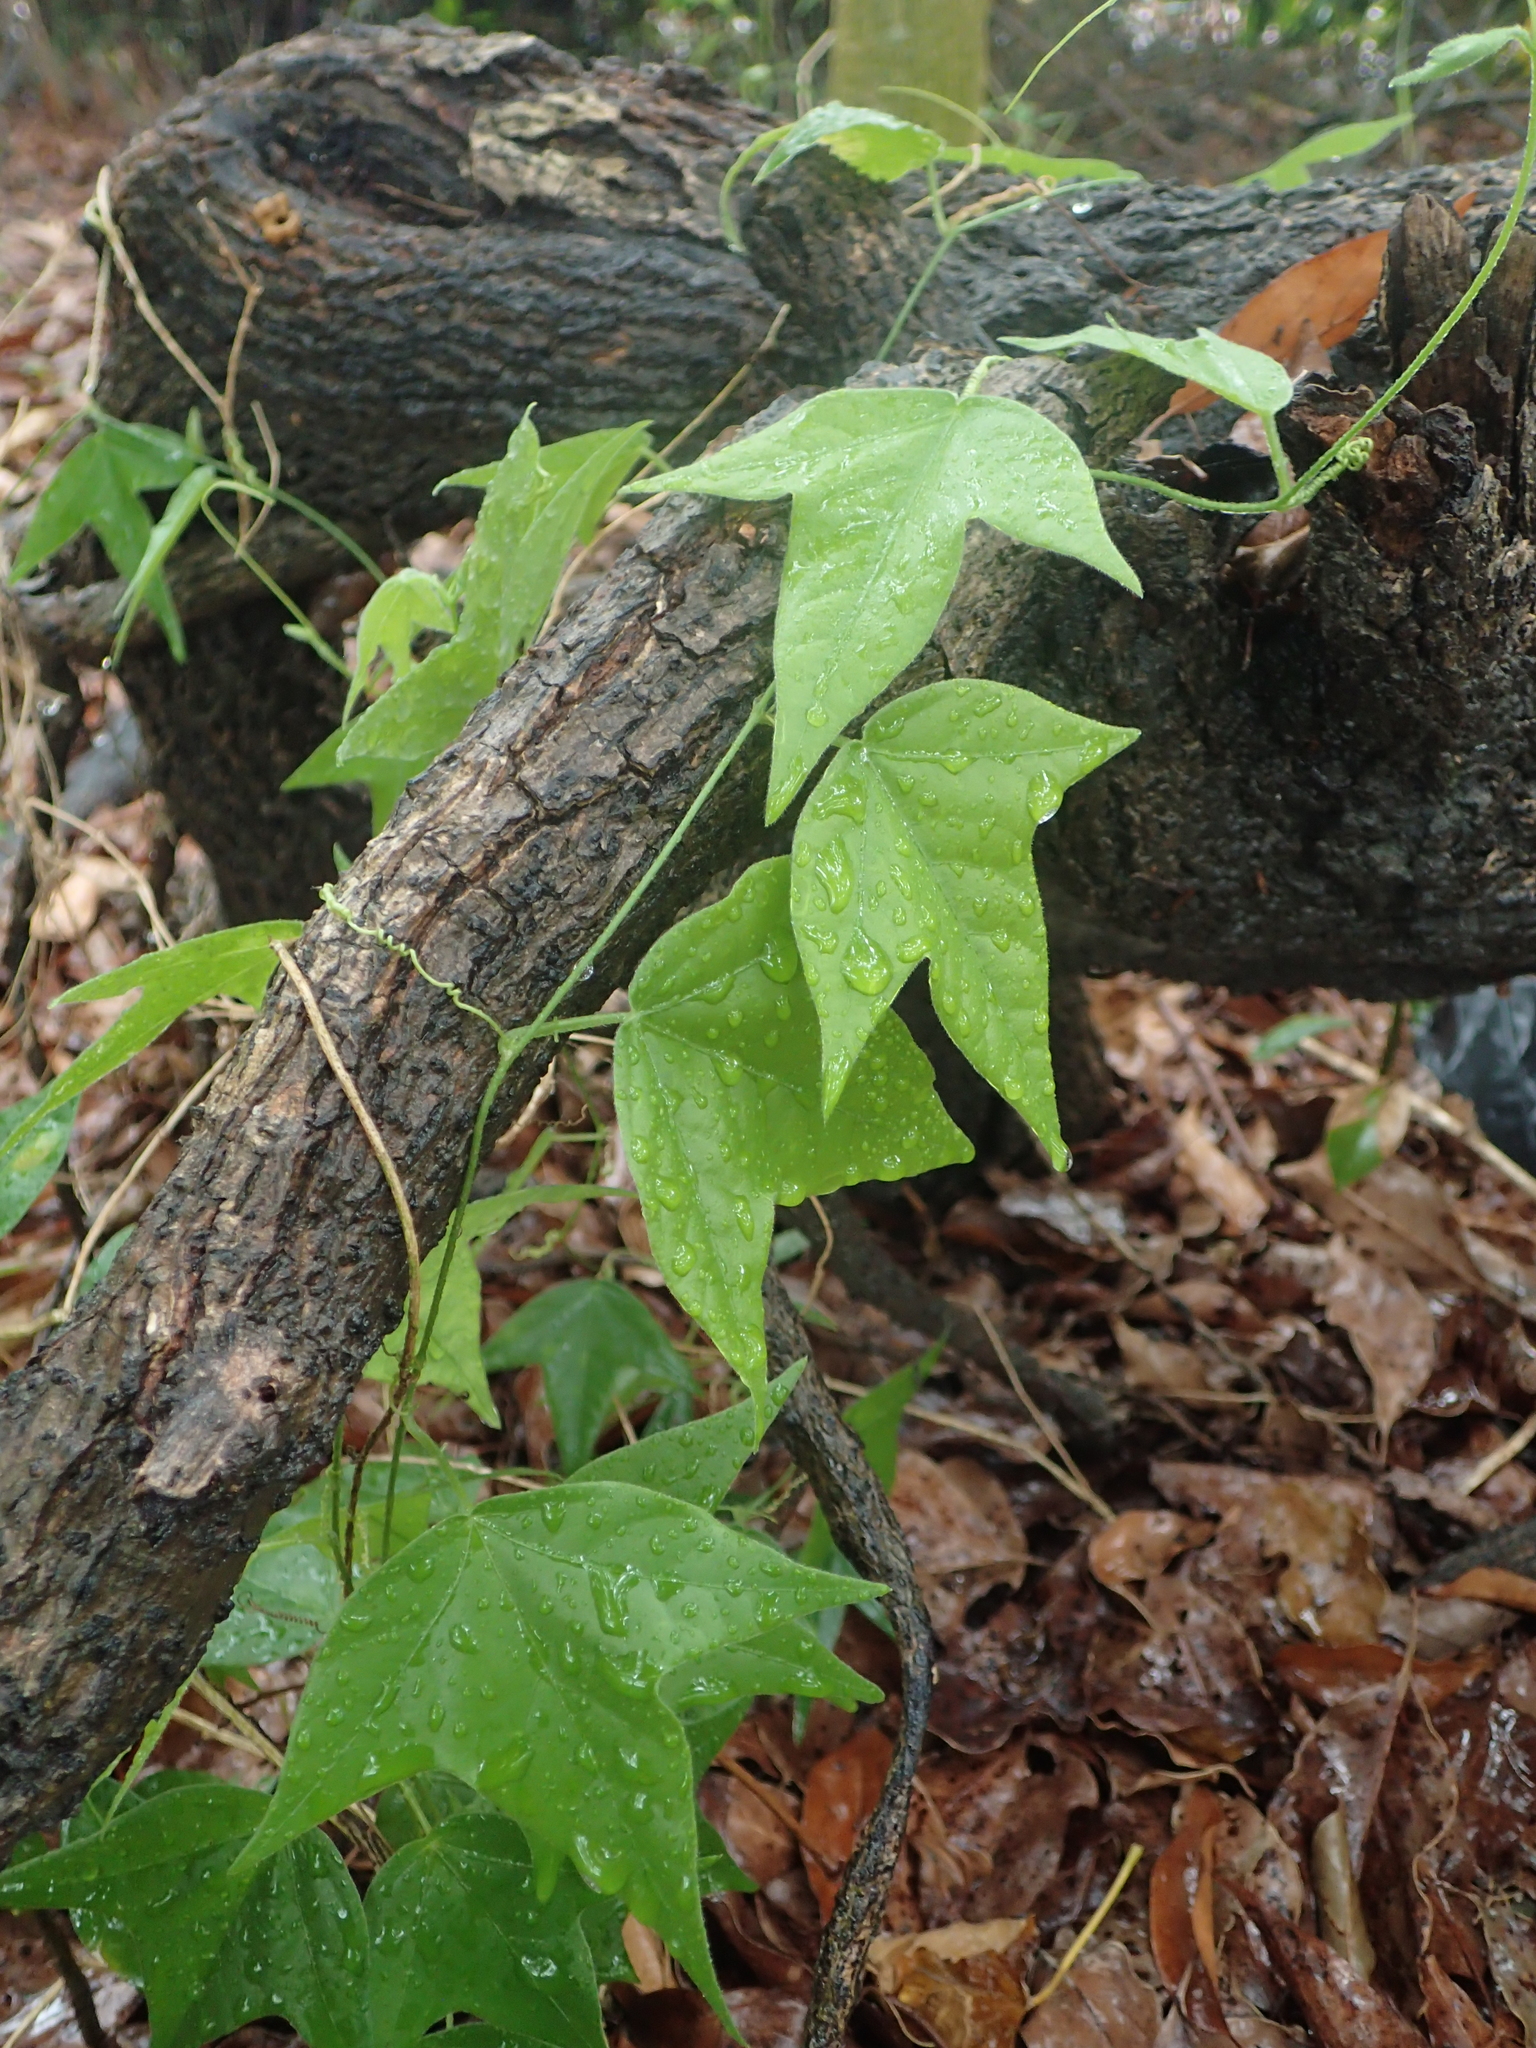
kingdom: Plantae
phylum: Tracheophyta
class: Magnoliopsida
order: Malpighiales
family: Passifloraceae
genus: Passiflora
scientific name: Passiflora suberosa
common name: Wild passionfruit
